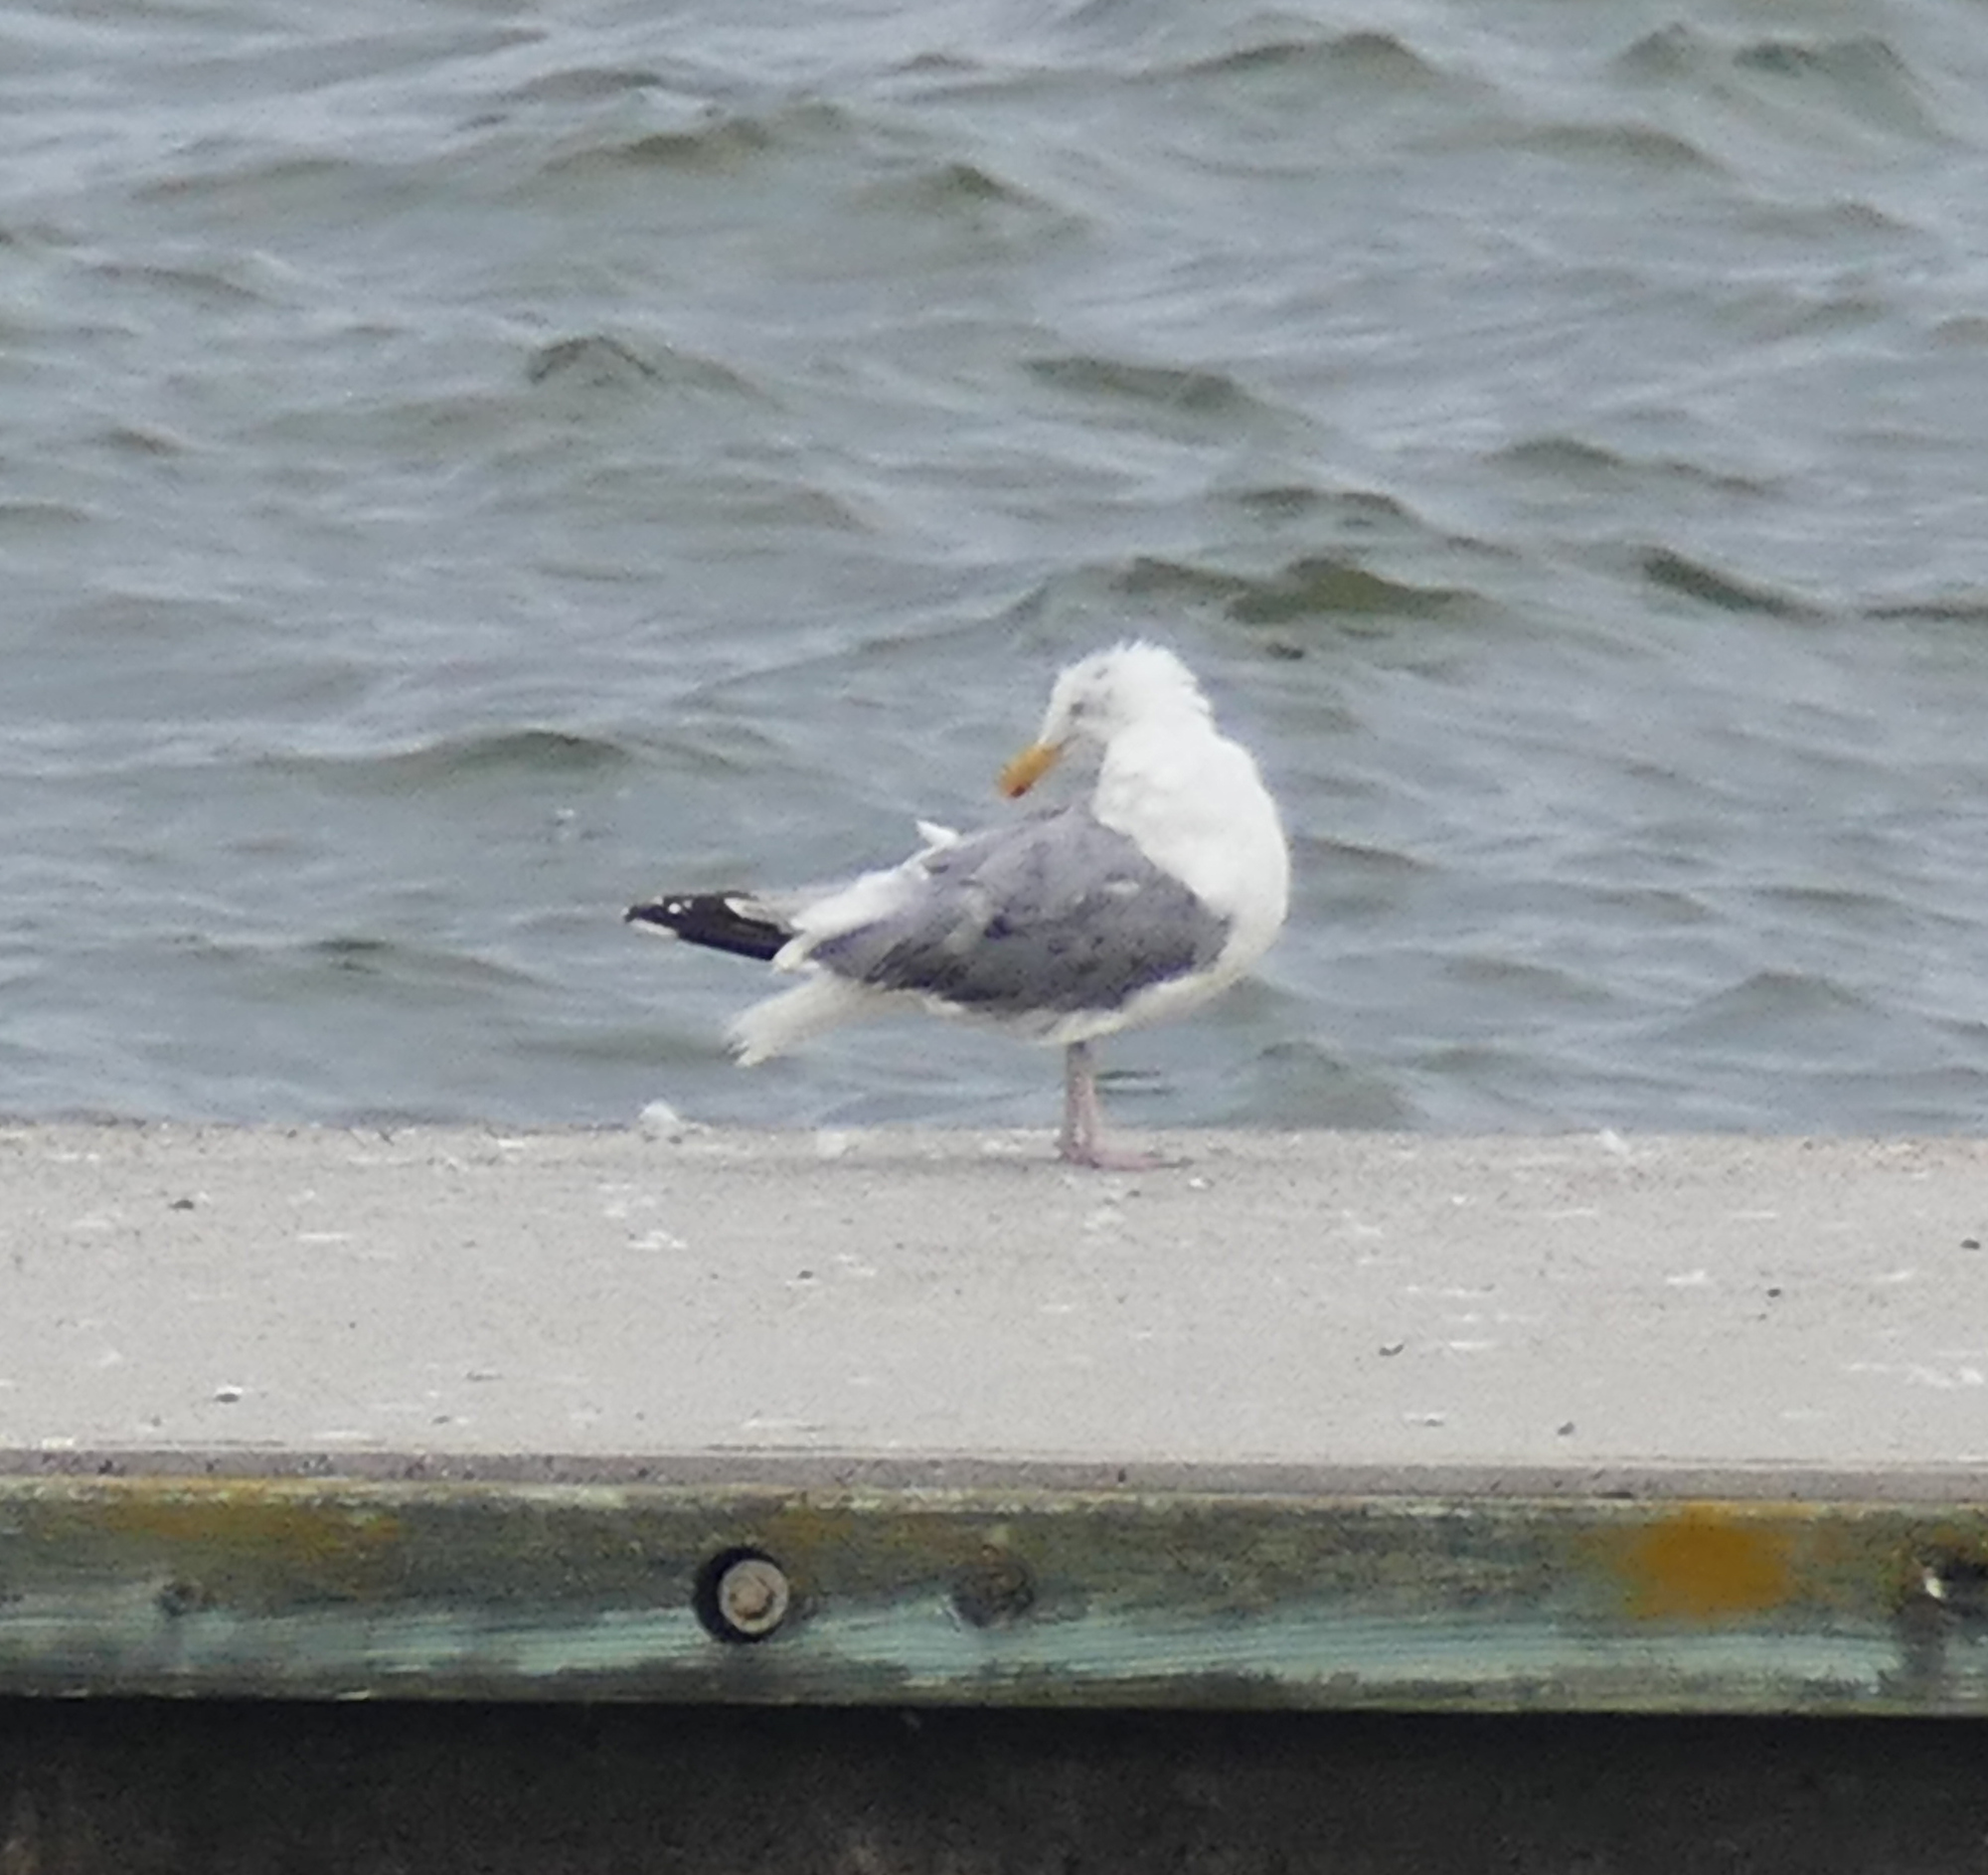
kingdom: Animalia
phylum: Chordata
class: Aves
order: Charadriiformes
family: Laridae
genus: Larus
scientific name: Larus argentatus
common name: Herring gull
